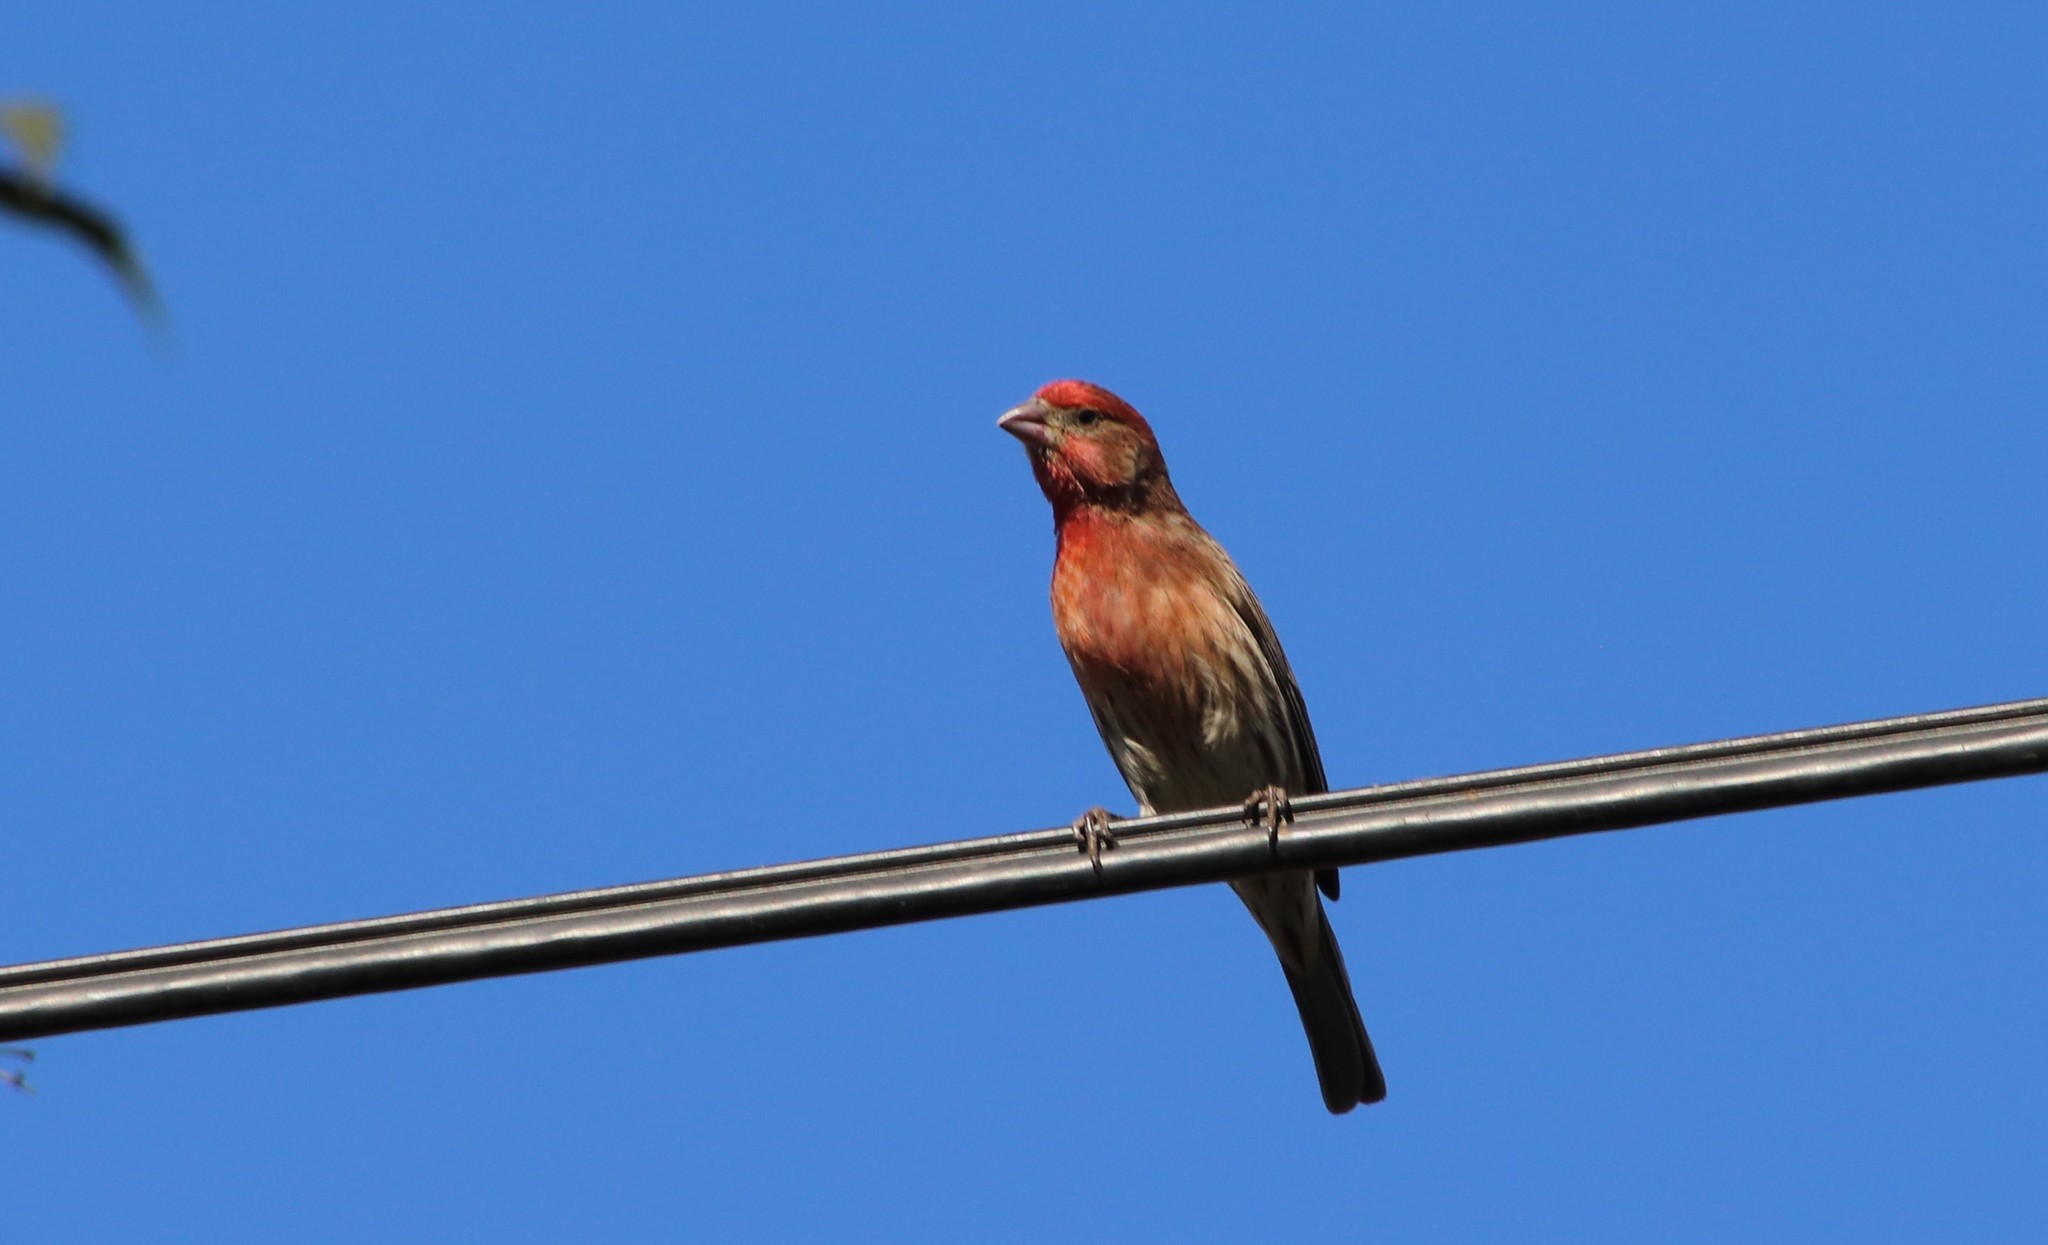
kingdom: Animalia
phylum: Chordata
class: Aves
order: Passeriformes
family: Fringillidae
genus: Haemorhous
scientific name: Haemorhous mexicanus
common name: House finch
